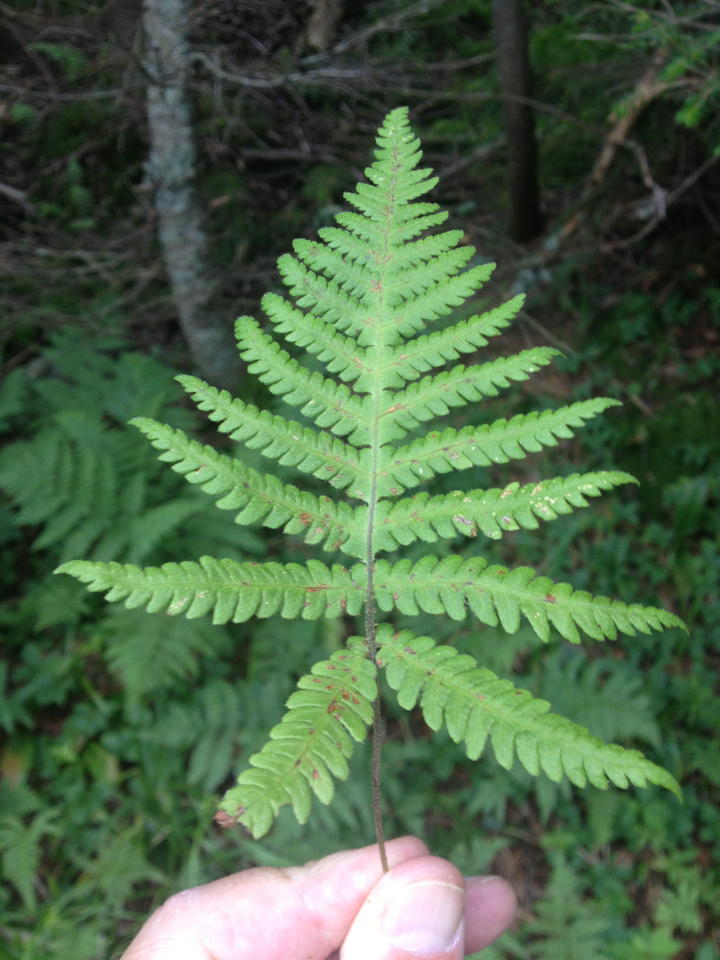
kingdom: Plantae
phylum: Tracheophyta
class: Polypodiopsida
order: Polypodiales
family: Thelypteridaceae
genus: Phegopteris
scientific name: Phegopteris connectilis
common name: Beech fern
